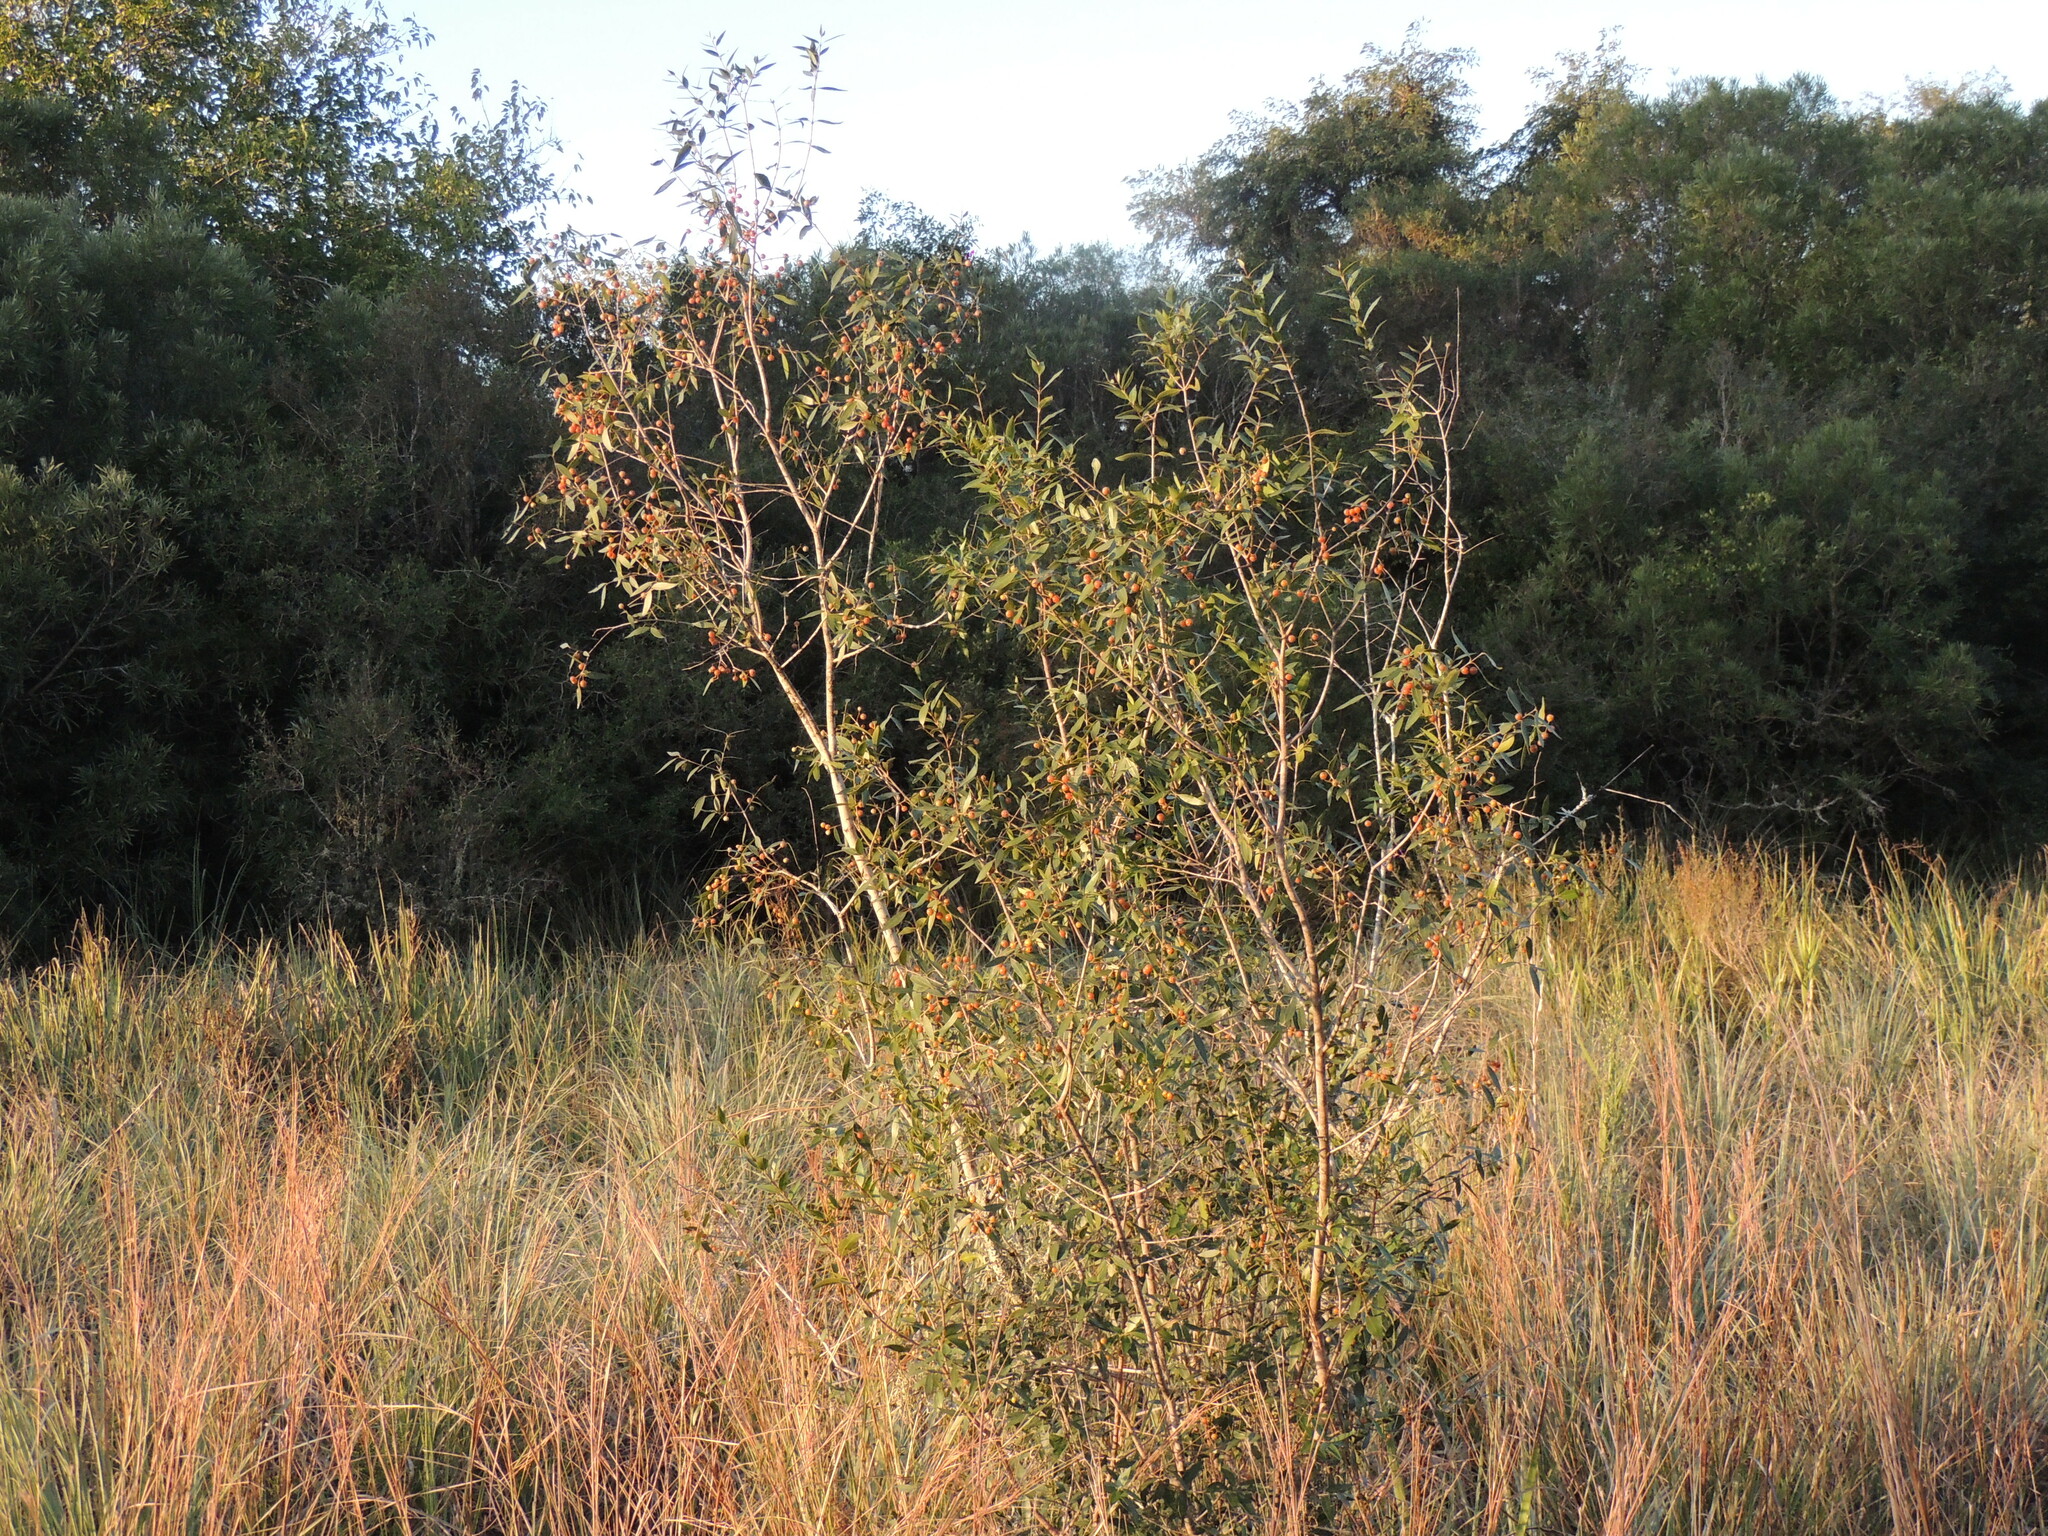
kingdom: Plantae
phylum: Tracheophyta
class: Magnoliopsida
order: Myrtales
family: Myrtaceae
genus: Blepharocalyx
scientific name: Blepharocalyx salicifolius
